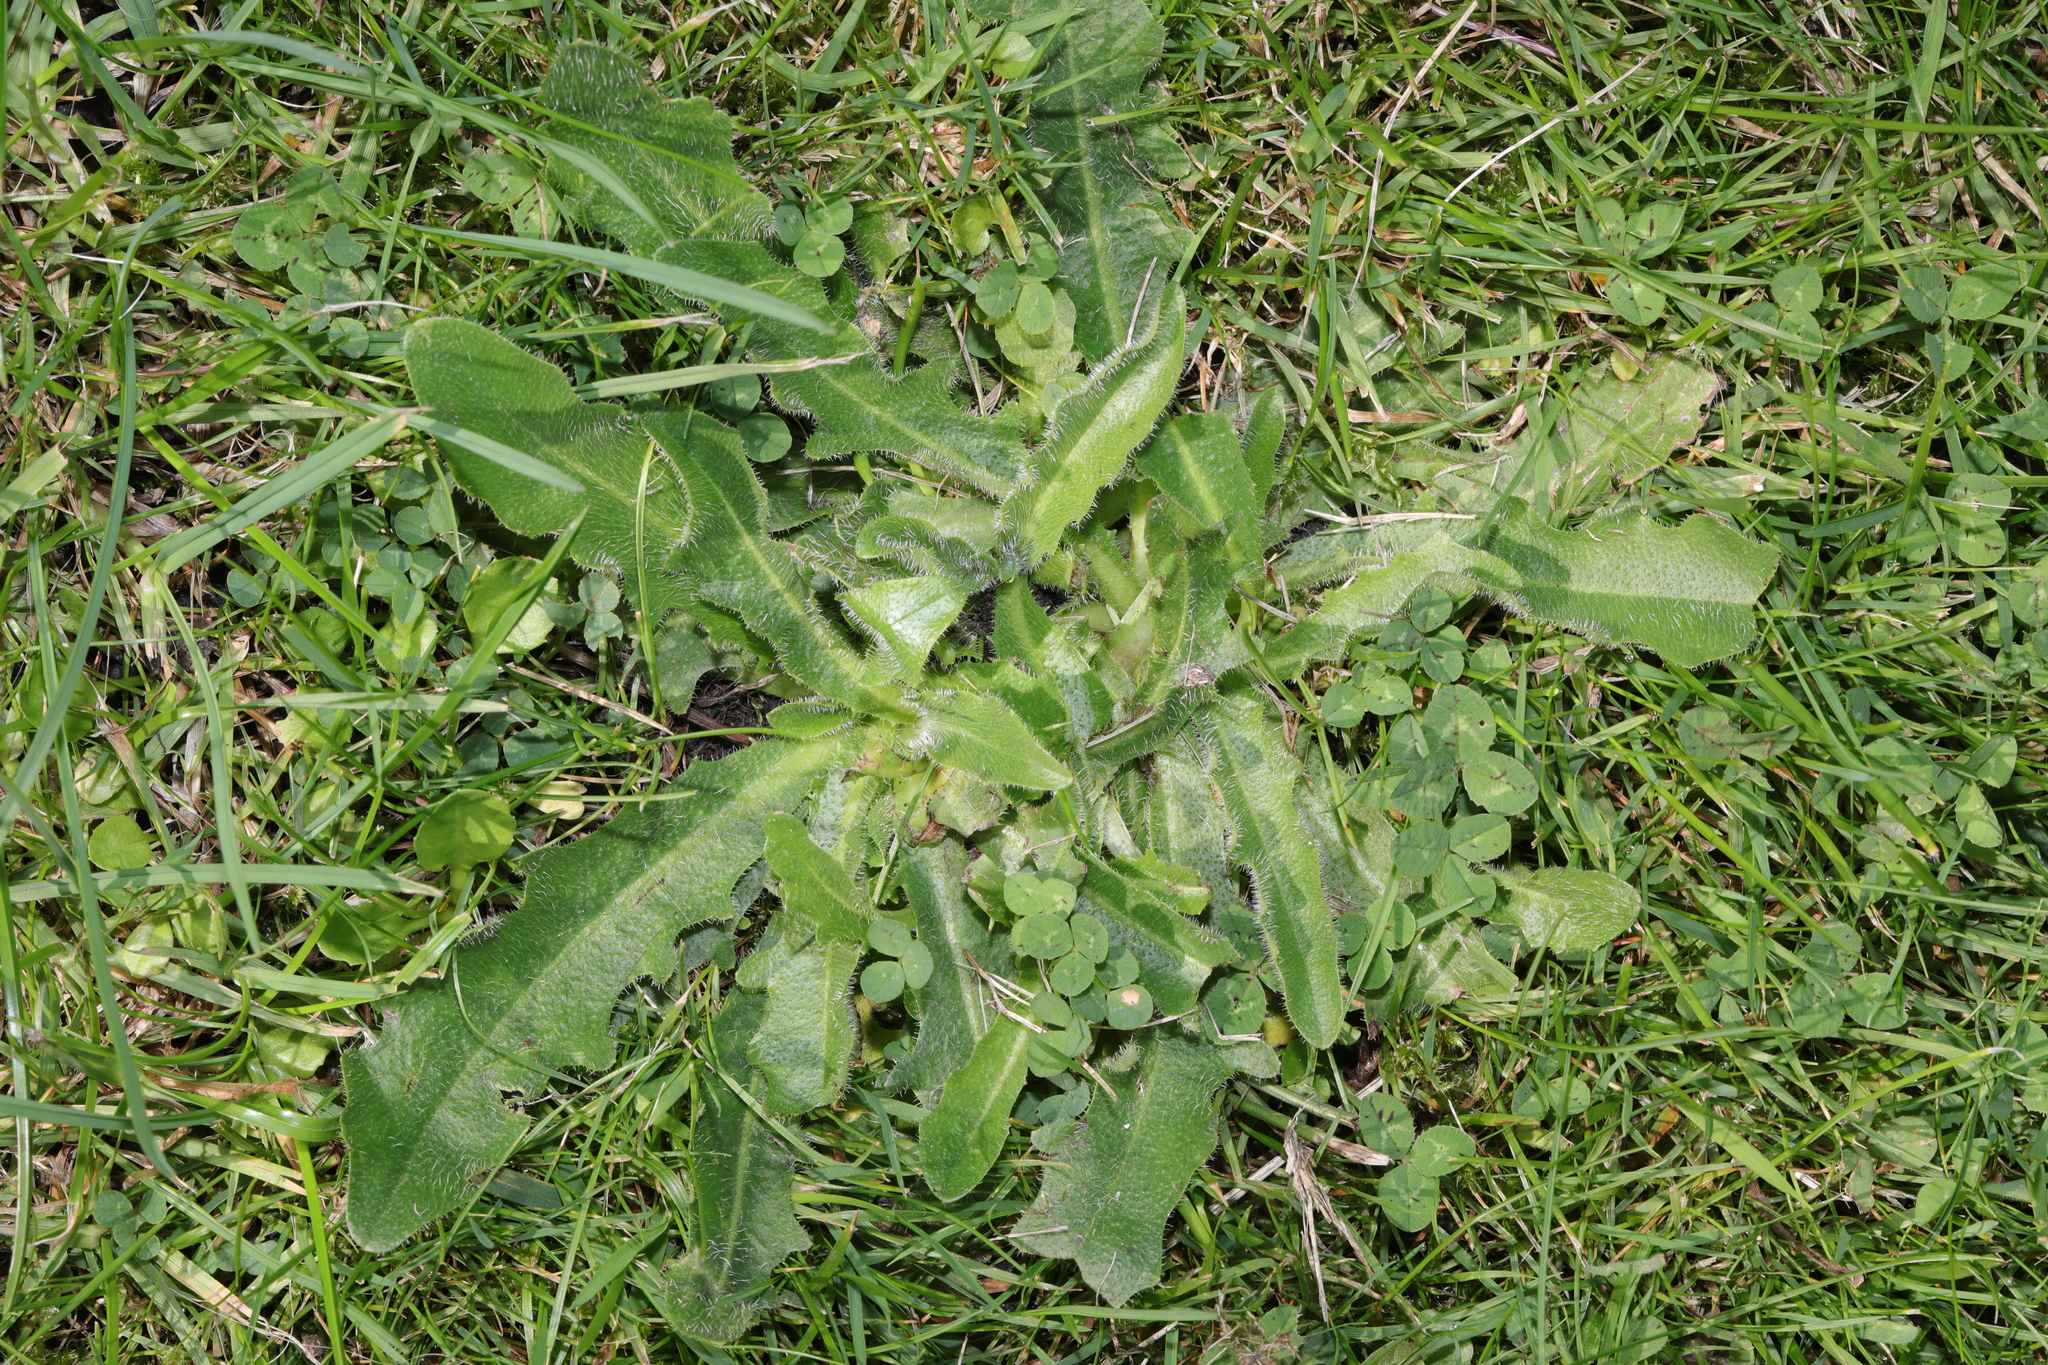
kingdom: Plantae
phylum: Tracheophyta
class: Magnoliopsida
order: Asterales
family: Asteraceae
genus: Hypochaeris
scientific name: Hypochaeris radicata
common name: Flatweed
